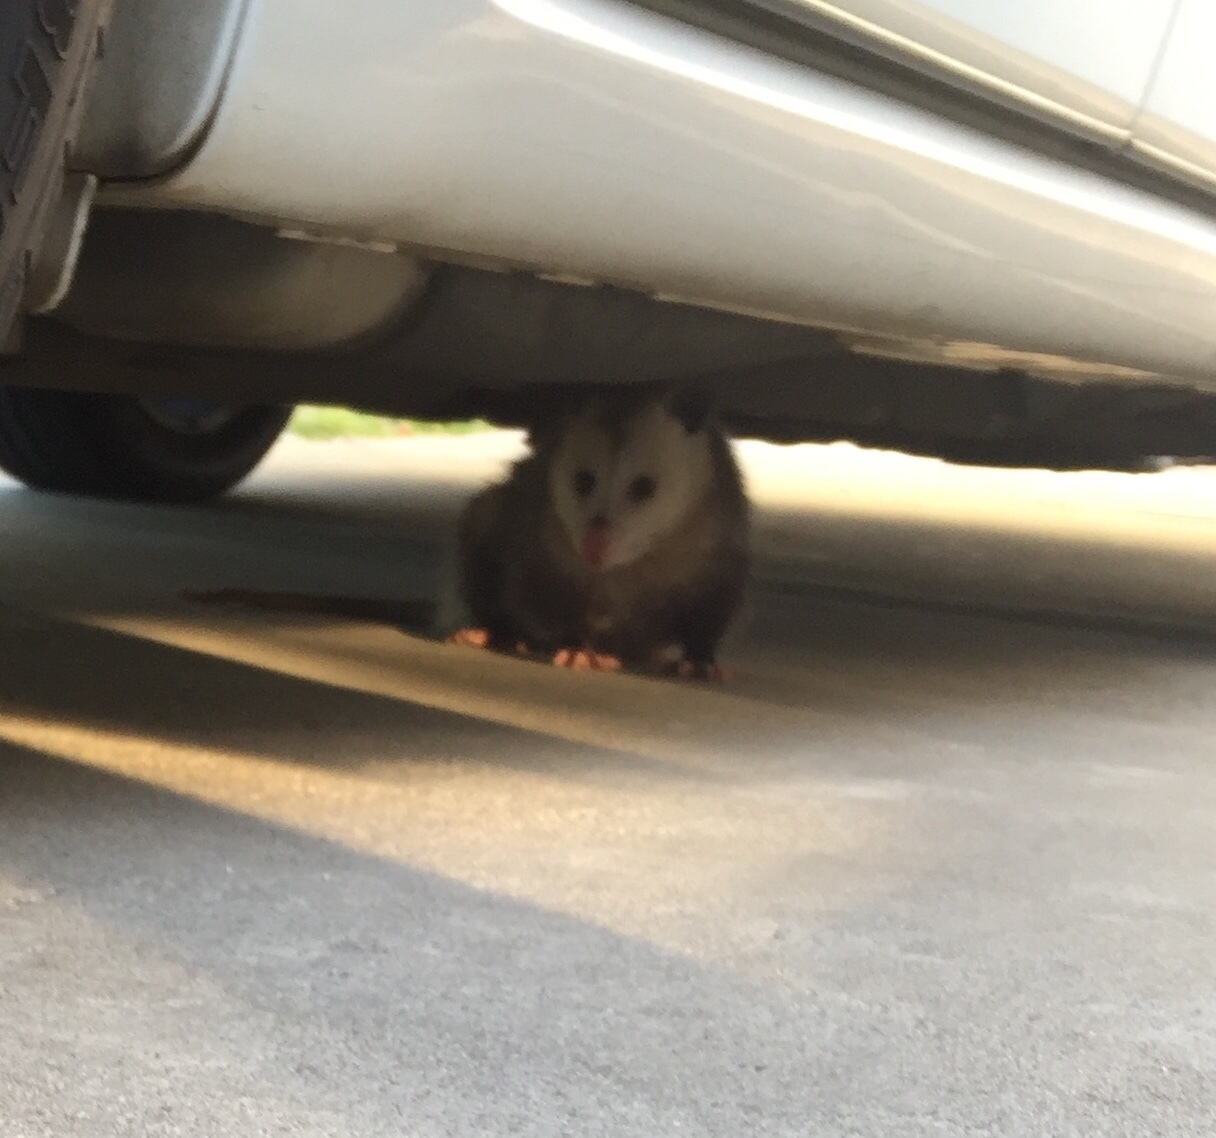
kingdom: Animalia
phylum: Chordata
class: Mammalia
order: Didelphimorphia
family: Didelphidae
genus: Didelphis
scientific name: Didelphis virginiana
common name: Virginia opossum
